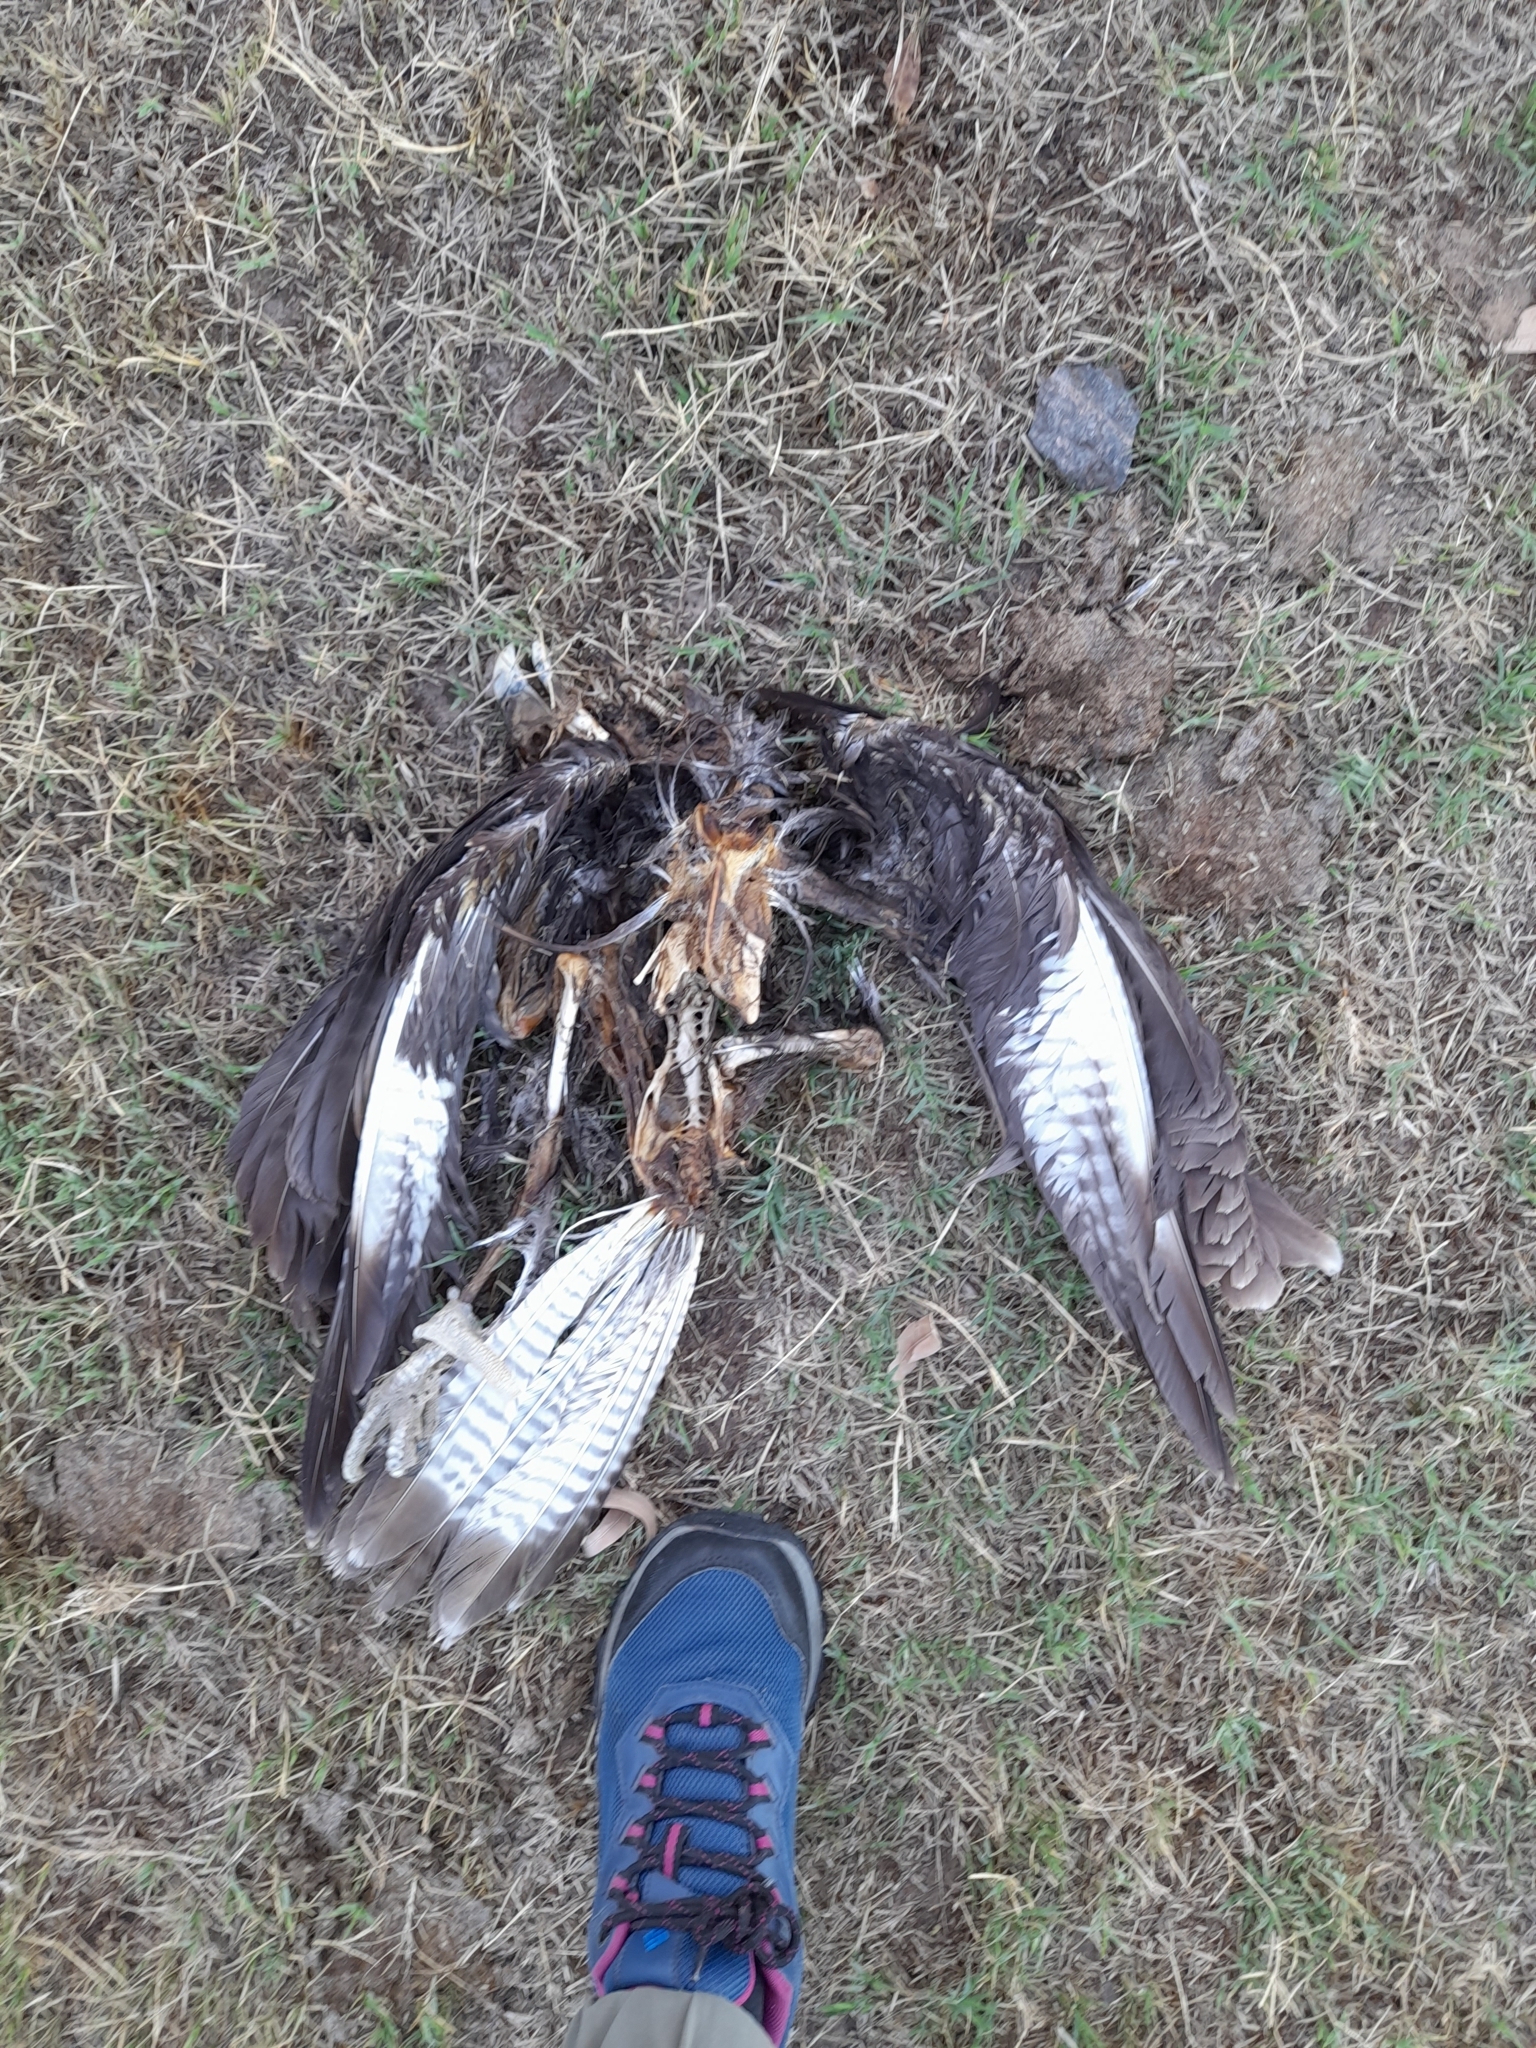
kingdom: Animalia
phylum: Chordata
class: Aves
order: Falconiformes
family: Falconidae
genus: Caracara
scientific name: Caracara plancus
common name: Southern caracara
